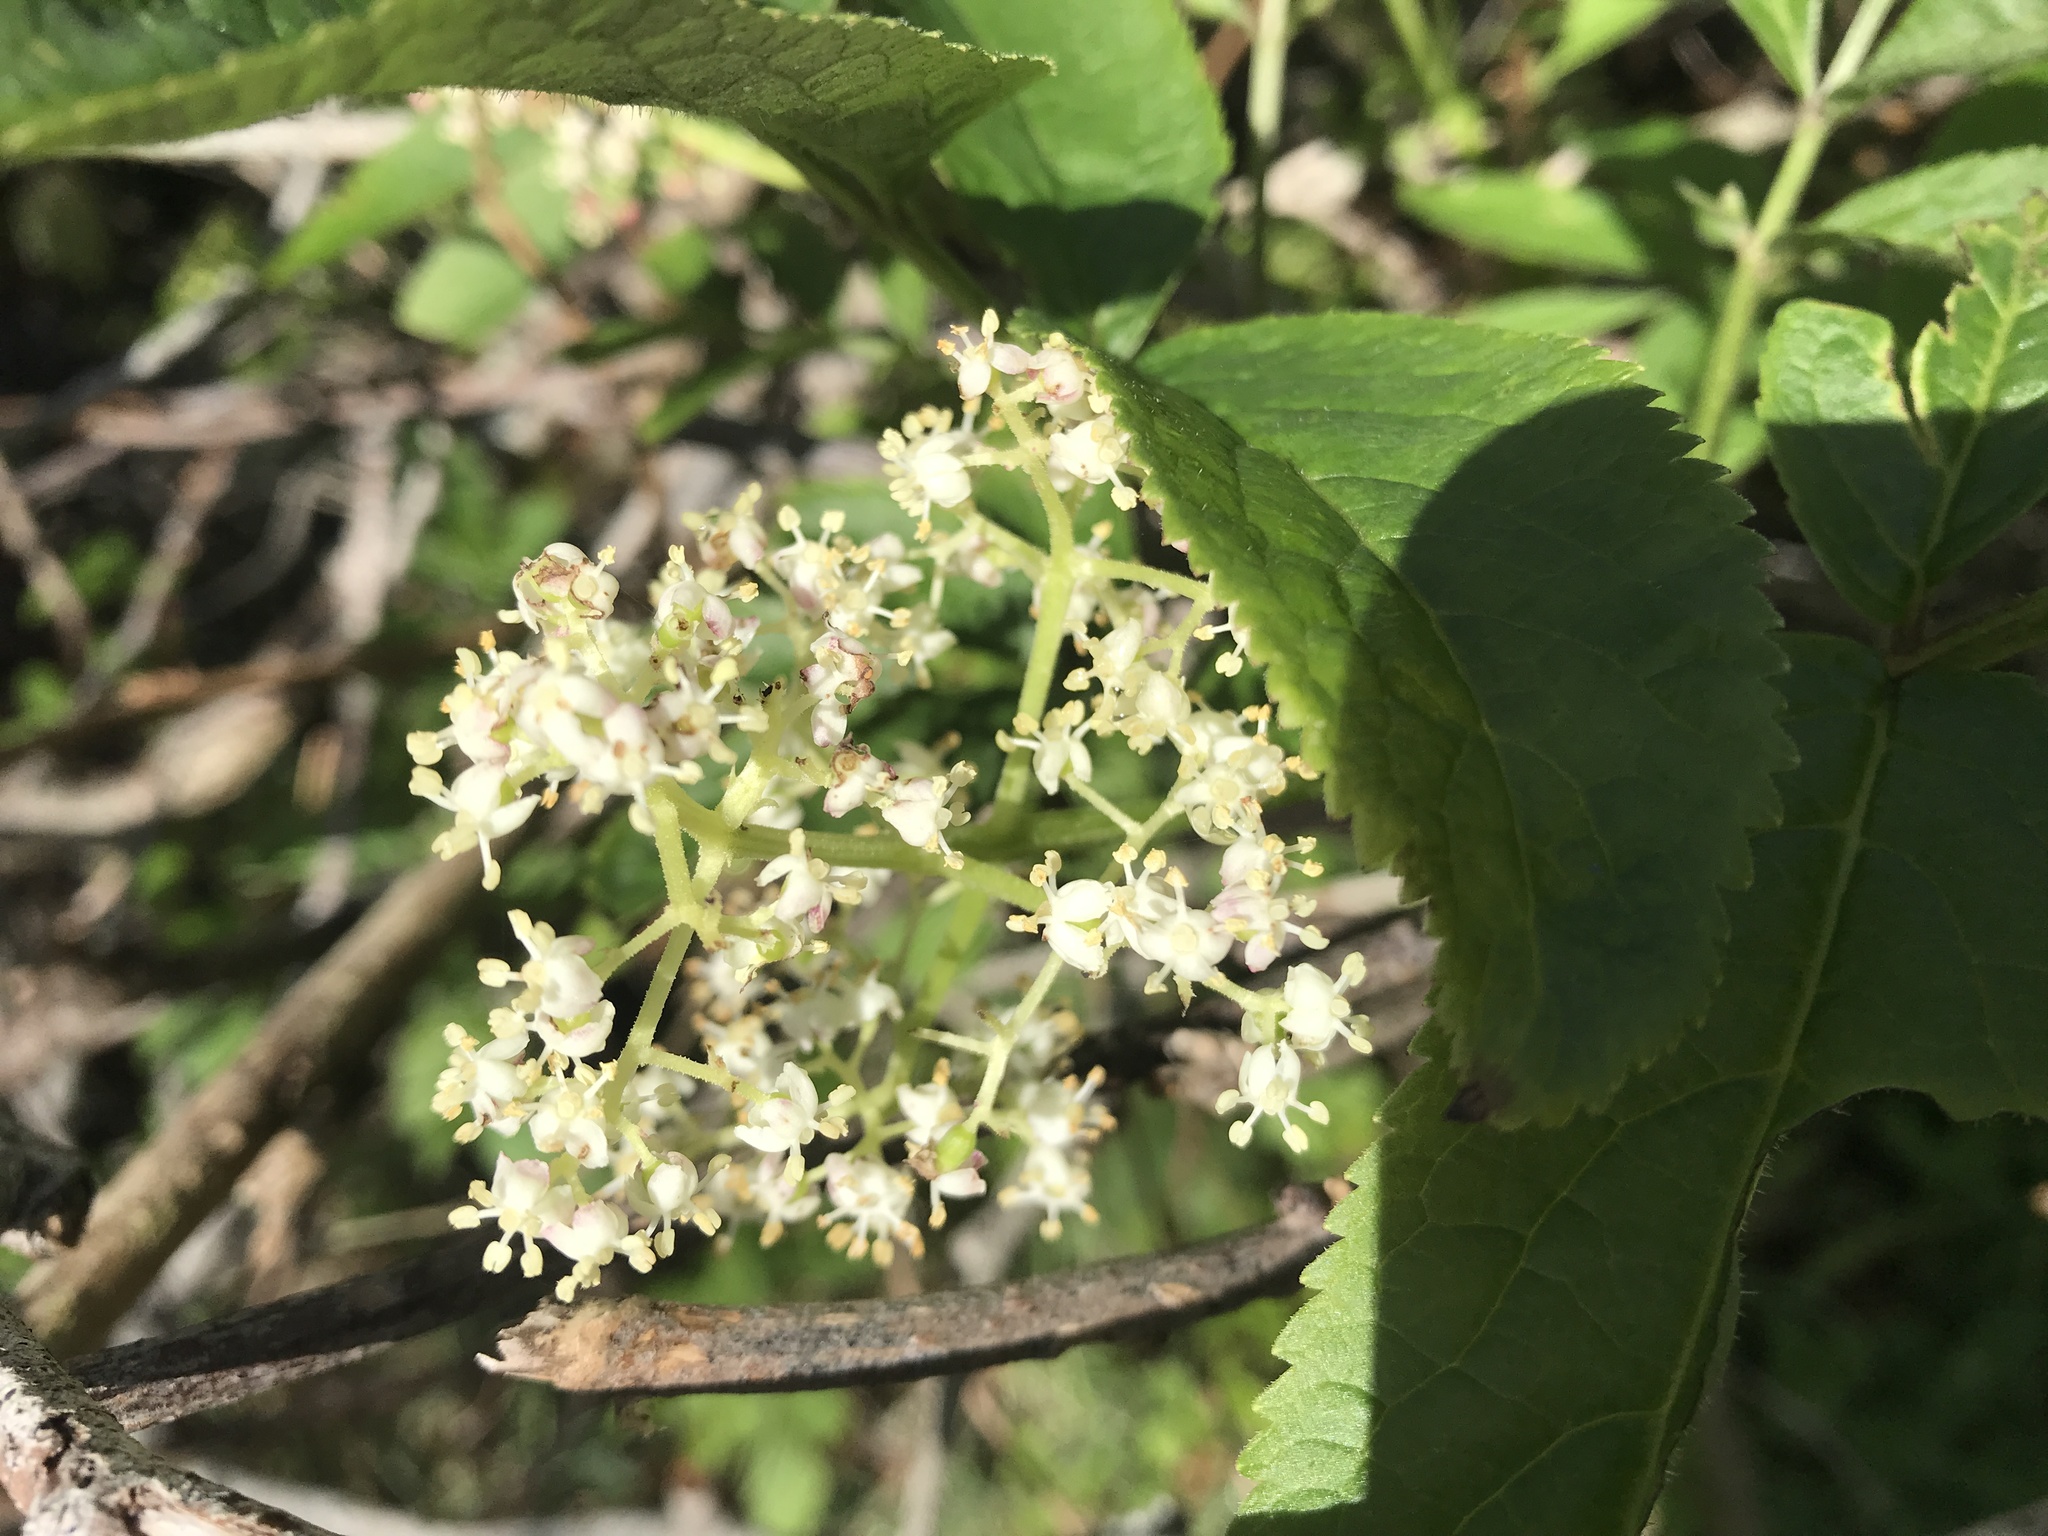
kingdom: Plantae
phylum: Tracheophyta
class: Magnoliopsida
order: Dipsacales
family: Viburnaceae
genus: Sambucus
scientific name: Sambucus racemosa
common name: Red-berried elder
